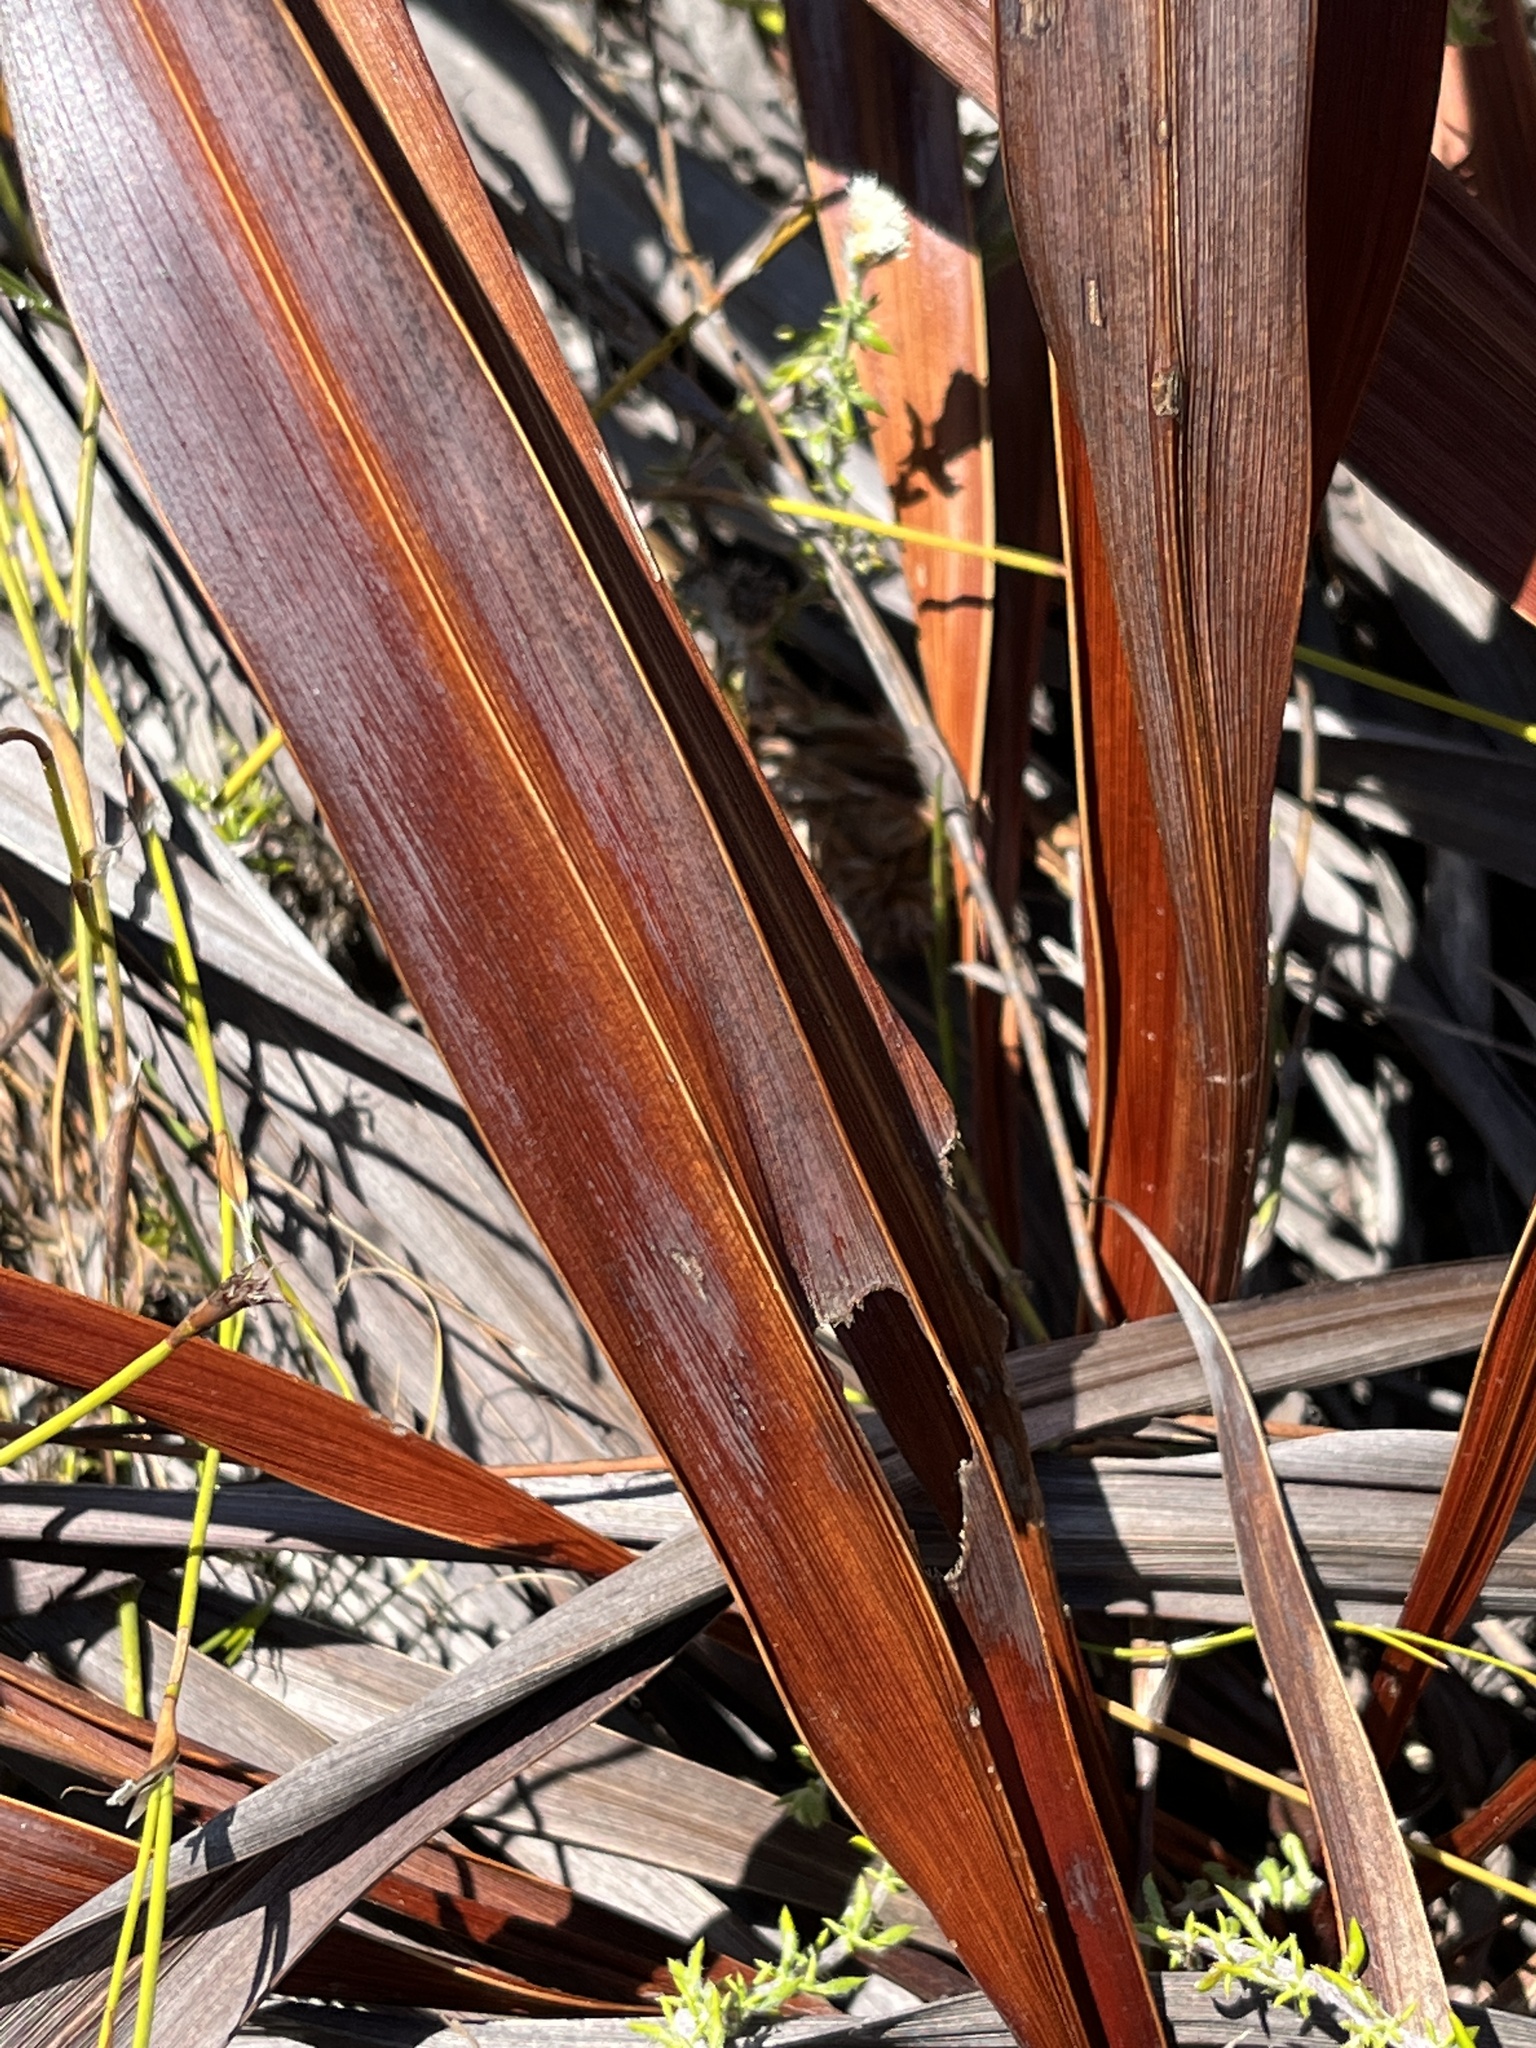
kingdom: Plantae
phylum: Tracheophyta
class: Liliopsida
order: Asparagales
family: Amaryllidaceae
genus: Agapanthus
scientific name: Agapanthus africanus
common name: Lily-of-the-nile
